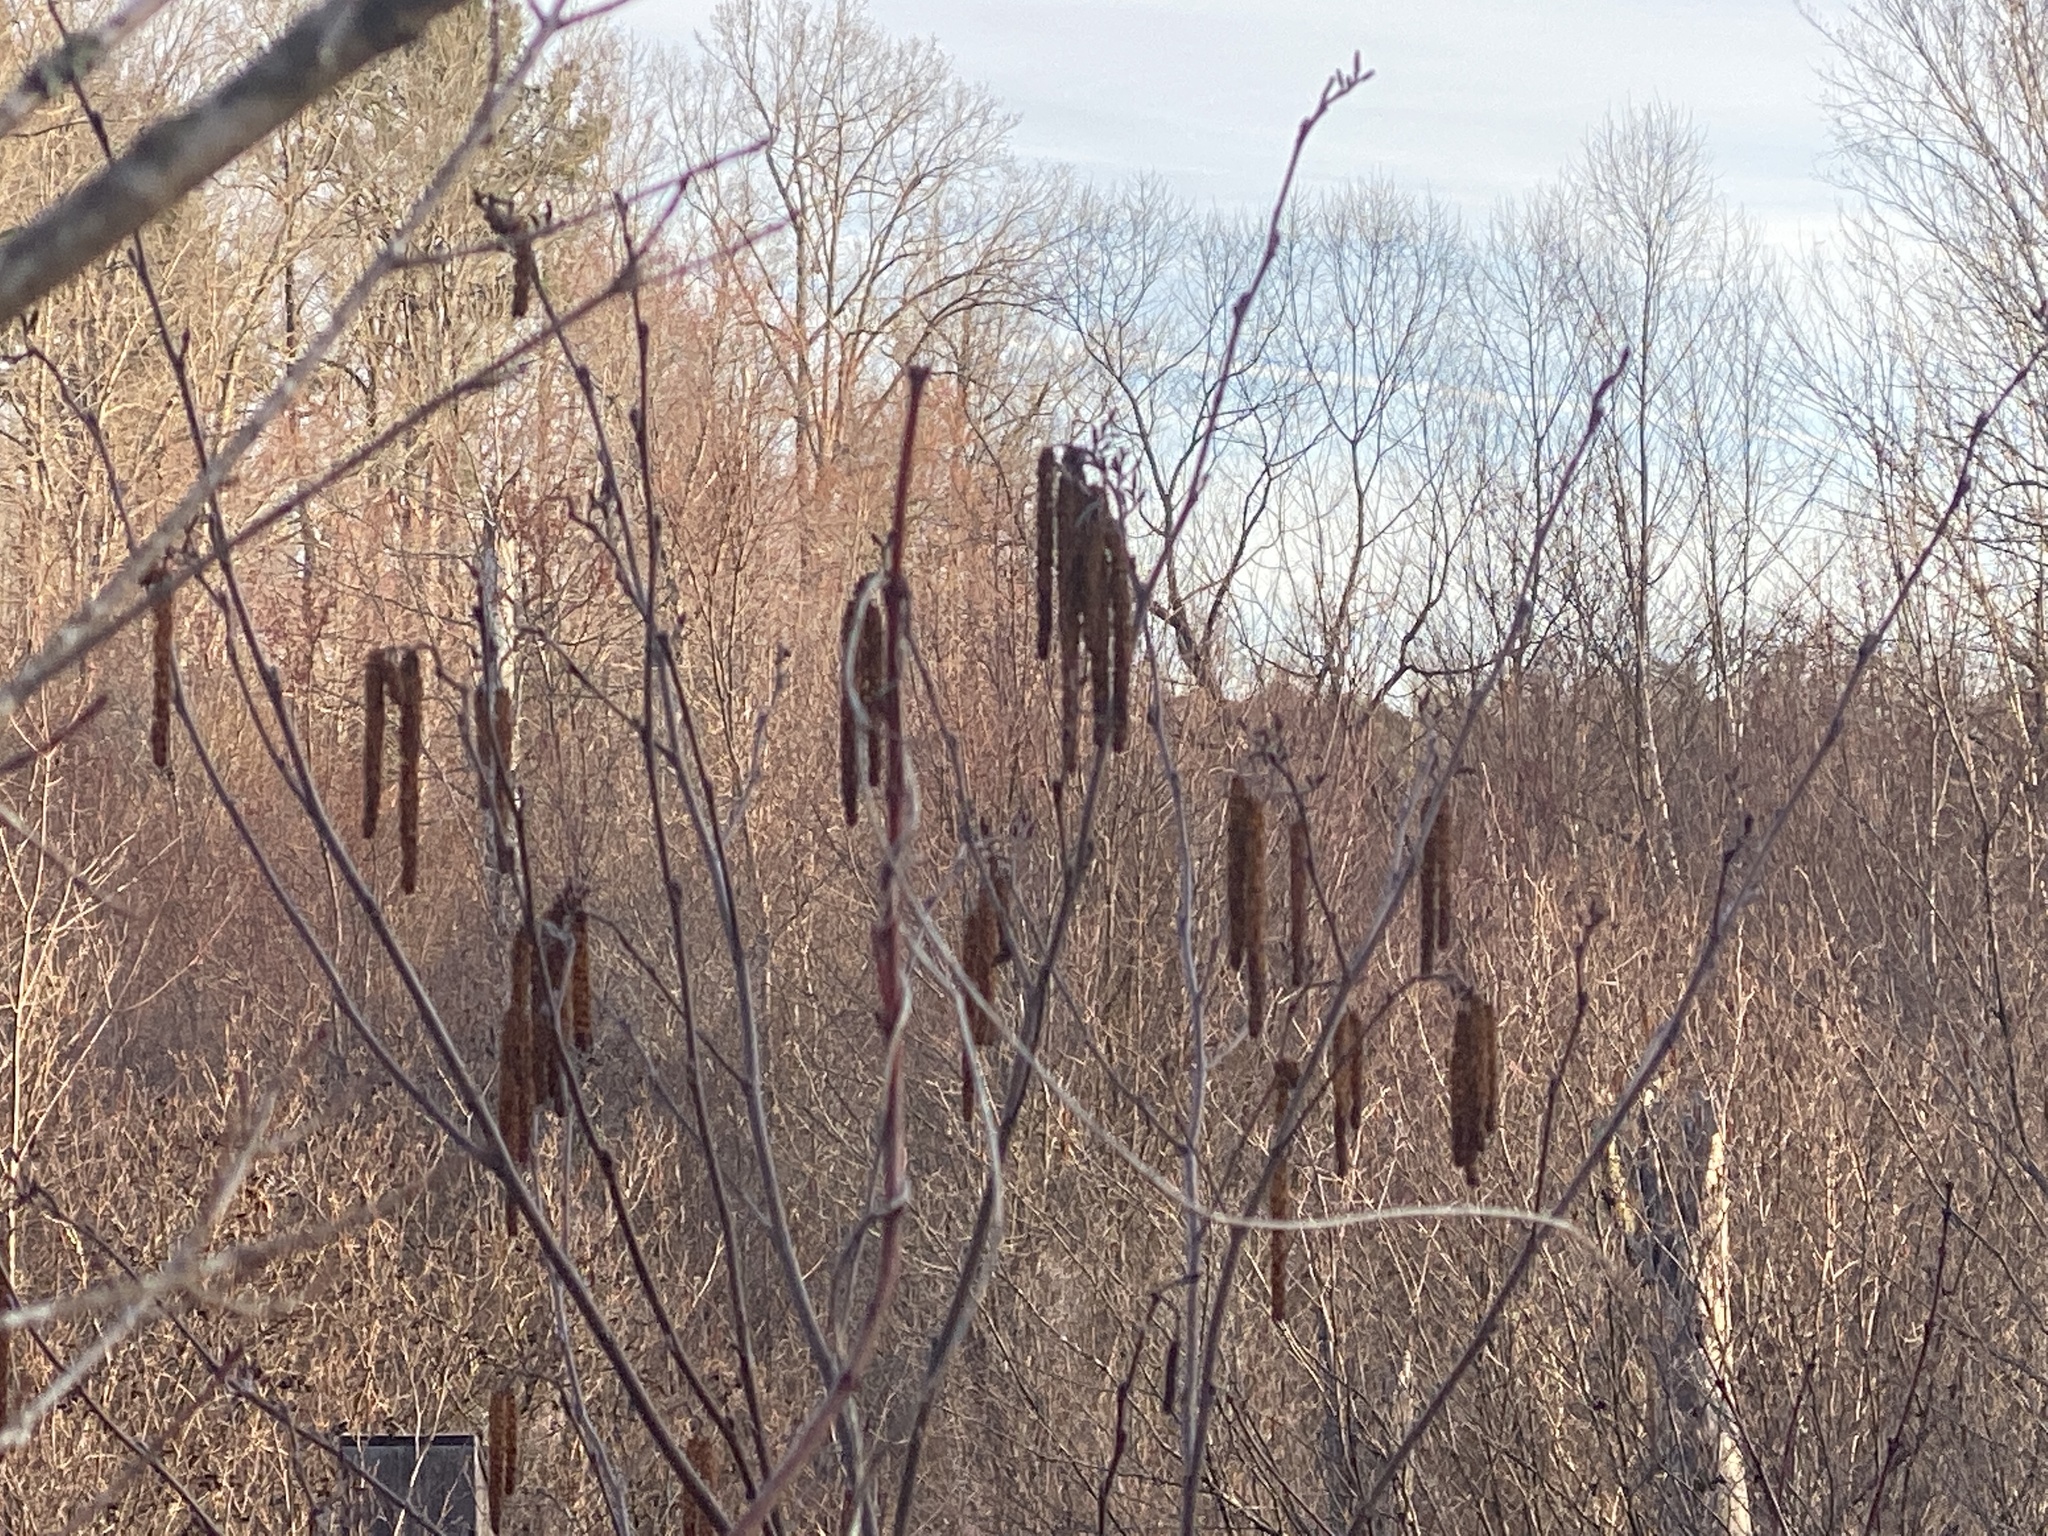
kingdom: Plantae
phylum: Tracheophyta
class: Magnoliopsida
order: Fagales
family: Betulaceae
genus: Alnus
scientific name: Alnus serrulata
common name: Hazel alder
